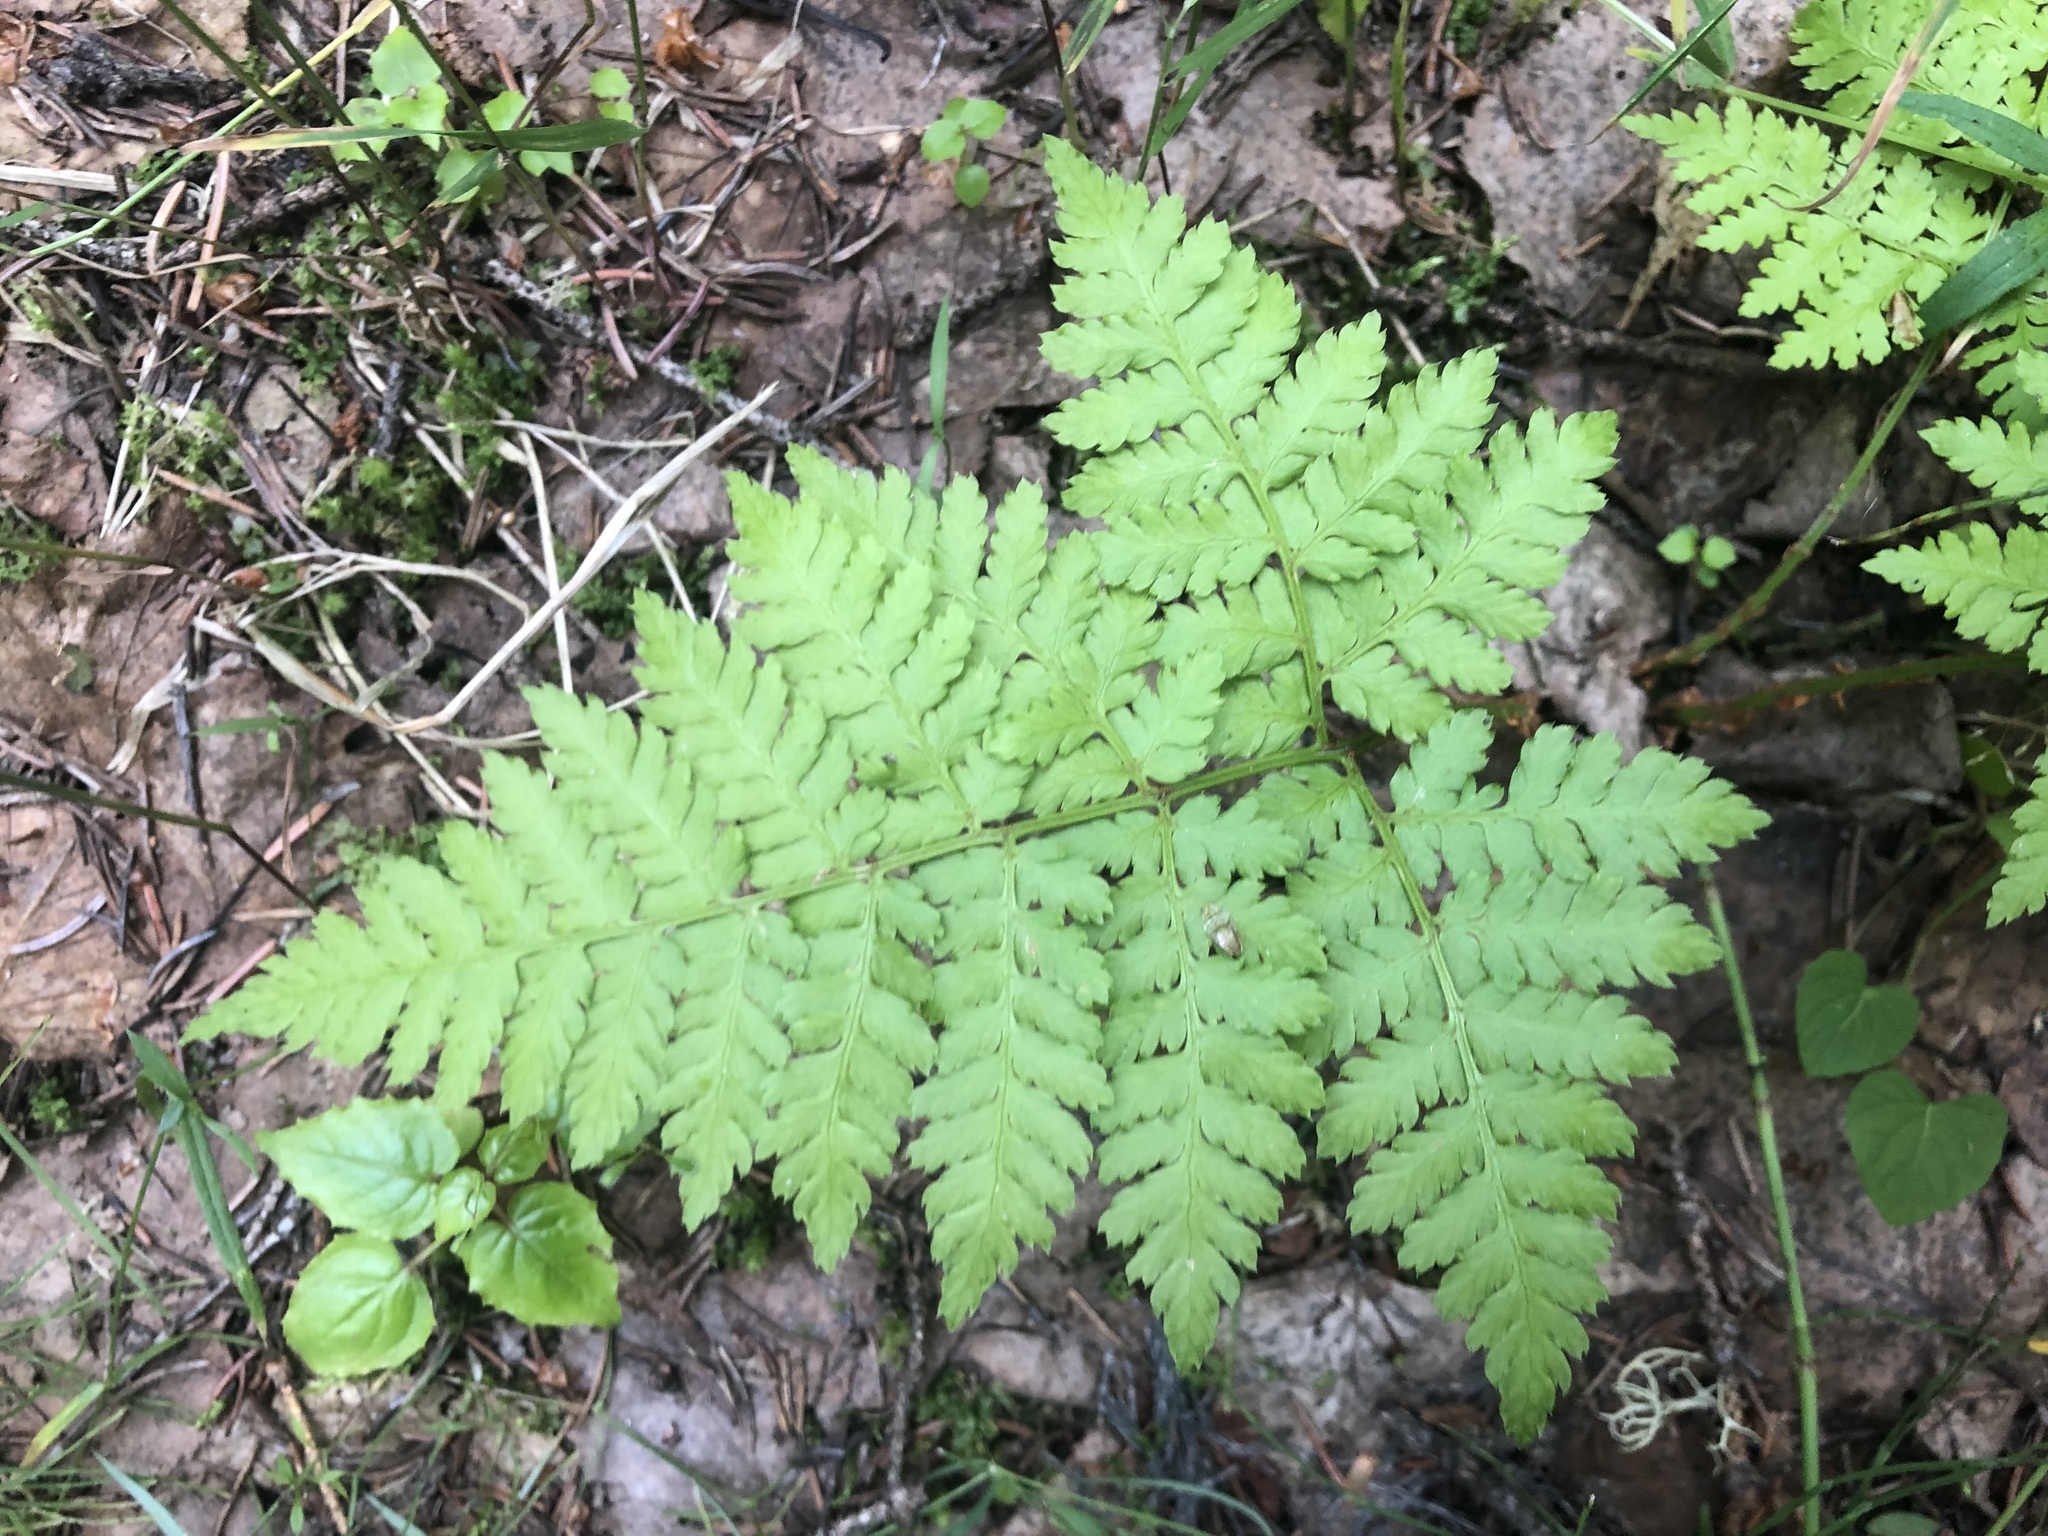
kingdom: Plantae
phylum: Tracheophyta
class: Polypodiopsida
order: Polypodiales
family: Dryopteridaceae
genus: Dryopteris
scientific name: Dryopteris expansa
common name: Northern buckler fern
